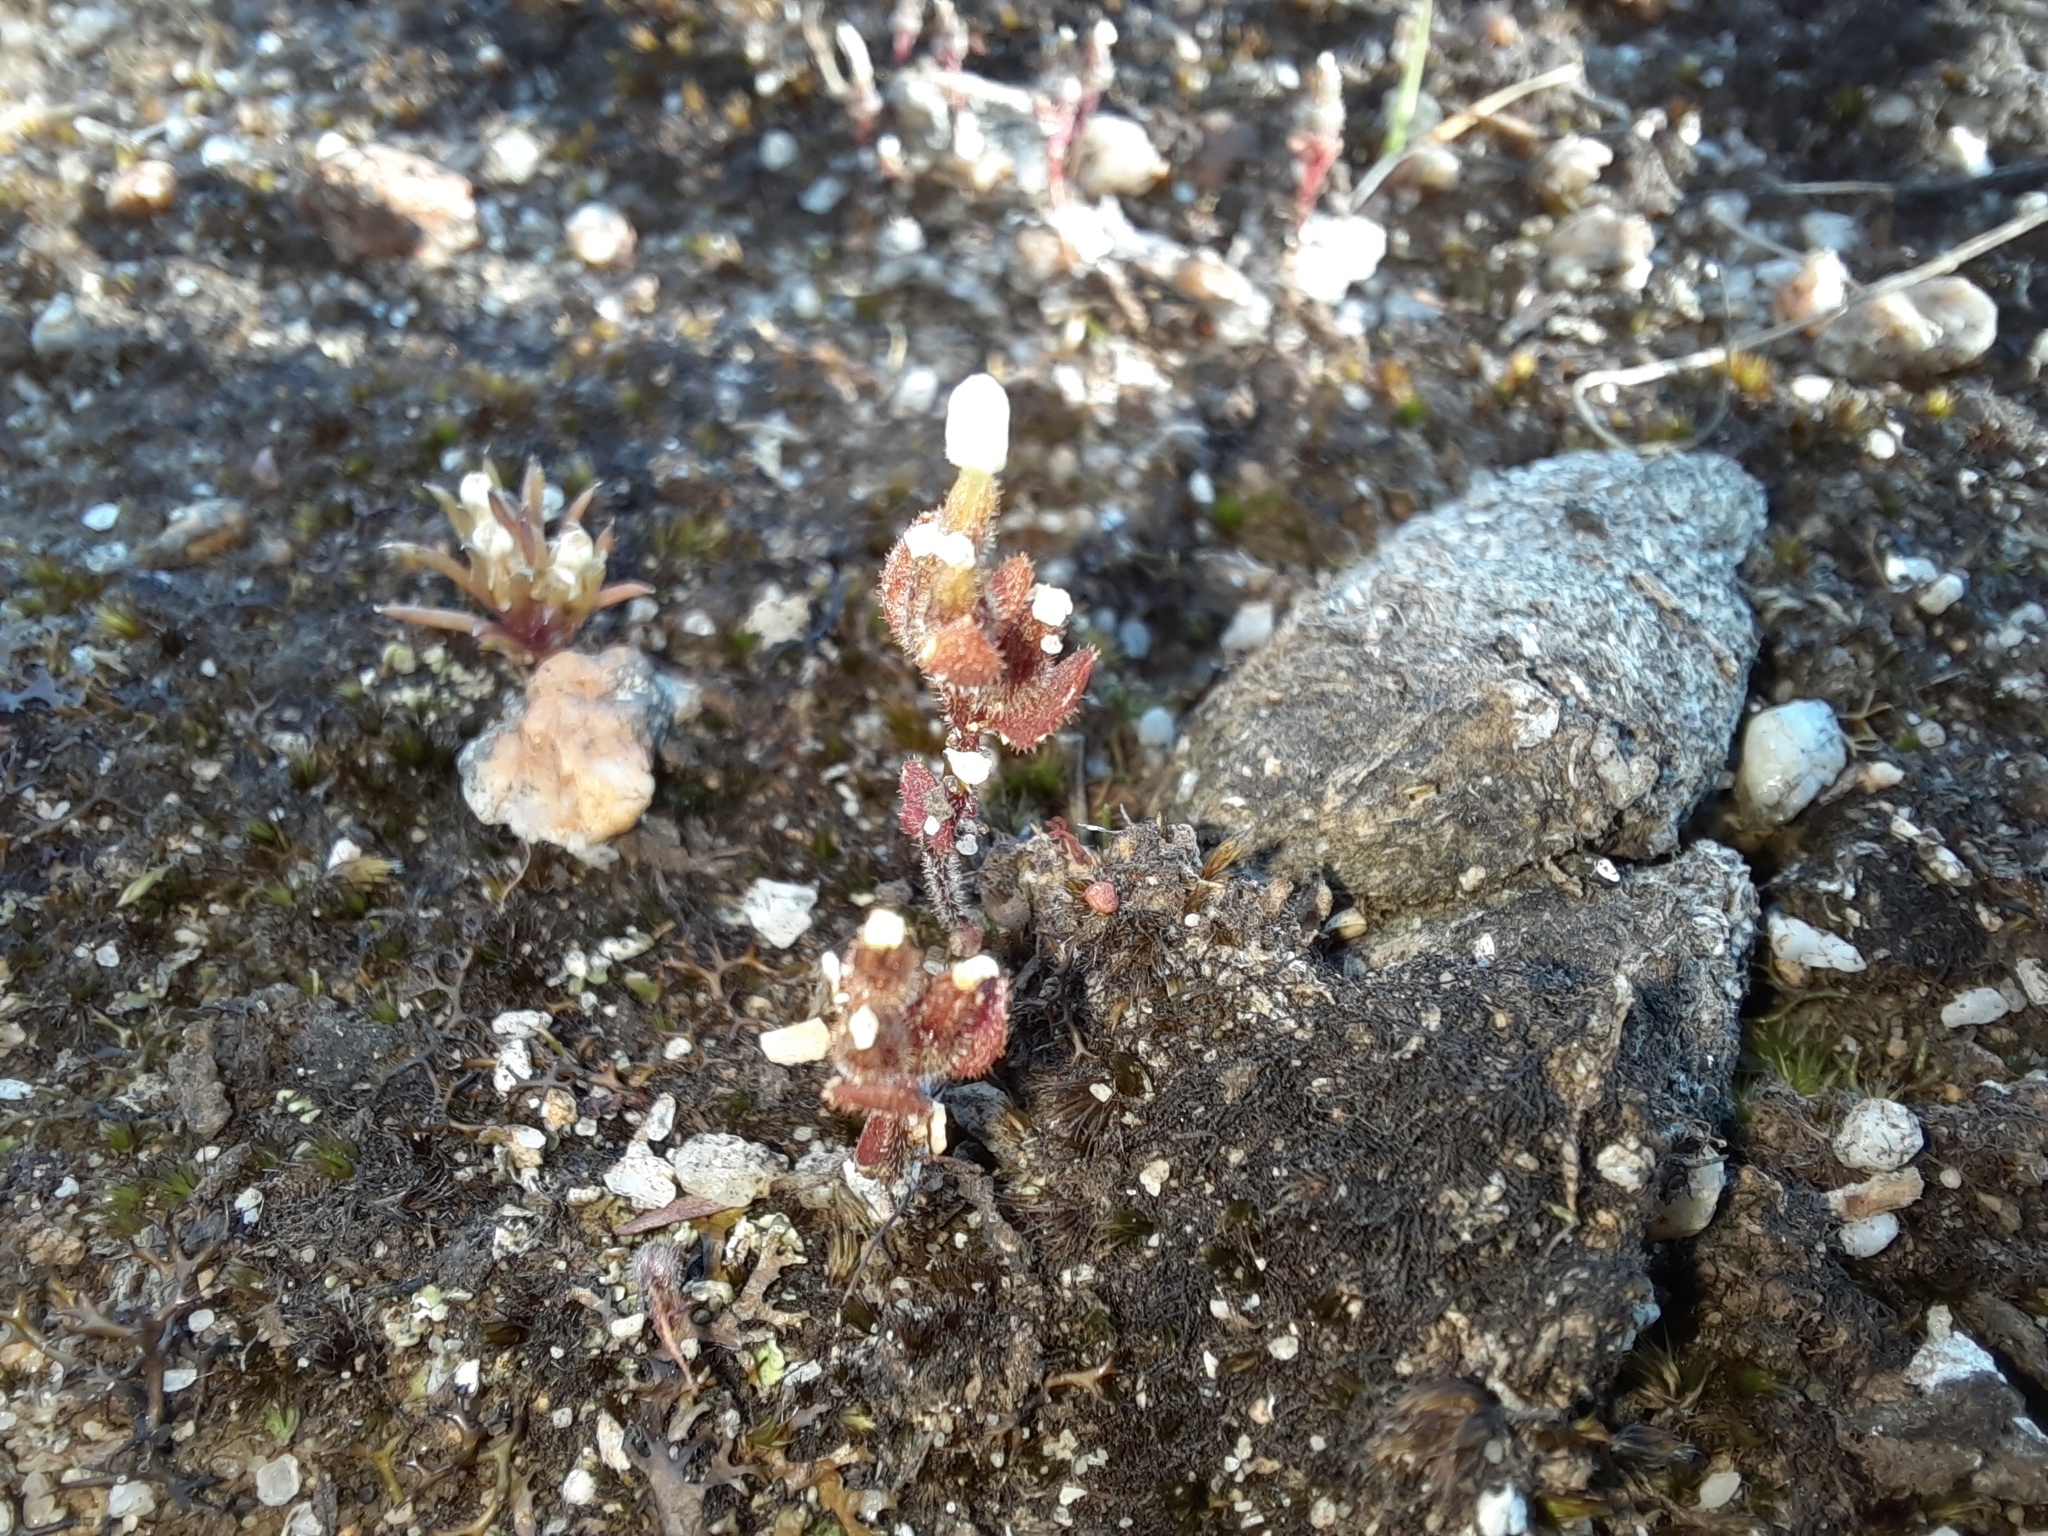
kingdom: Plantae
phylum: Tracheophyta
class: Magnoliopsida
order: Asterales
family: Stylidiaceae
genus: Levenhookia
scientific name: Levenhookia dubia
